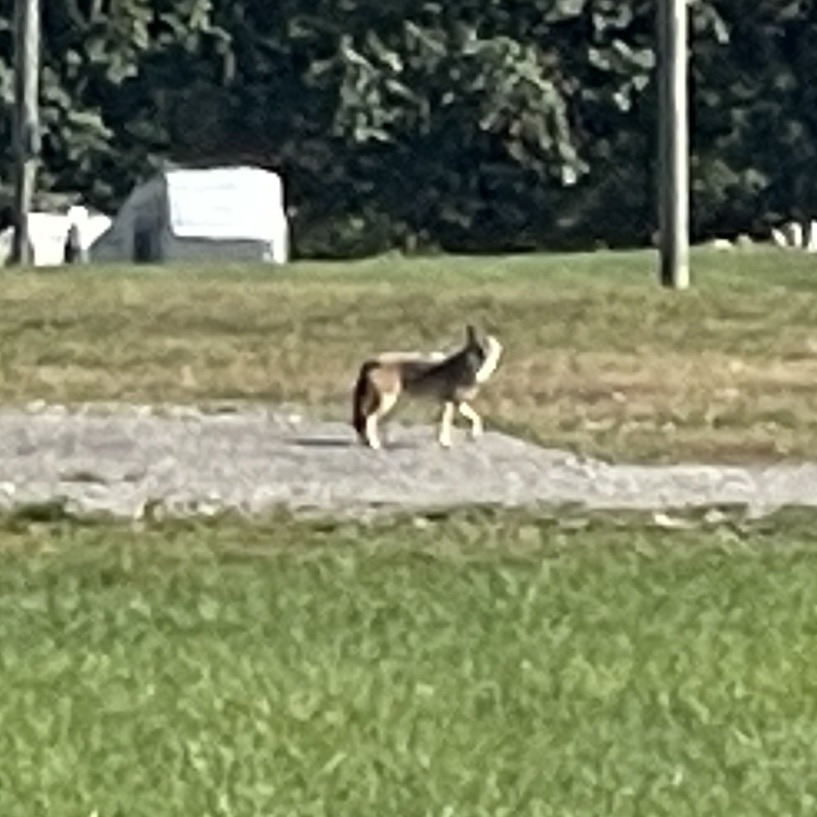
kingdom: Animalia
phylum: Chordata
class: Mammalia
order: Carnivora
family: Canidae
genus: Canis
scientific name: Canis latrans
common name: Coyote
